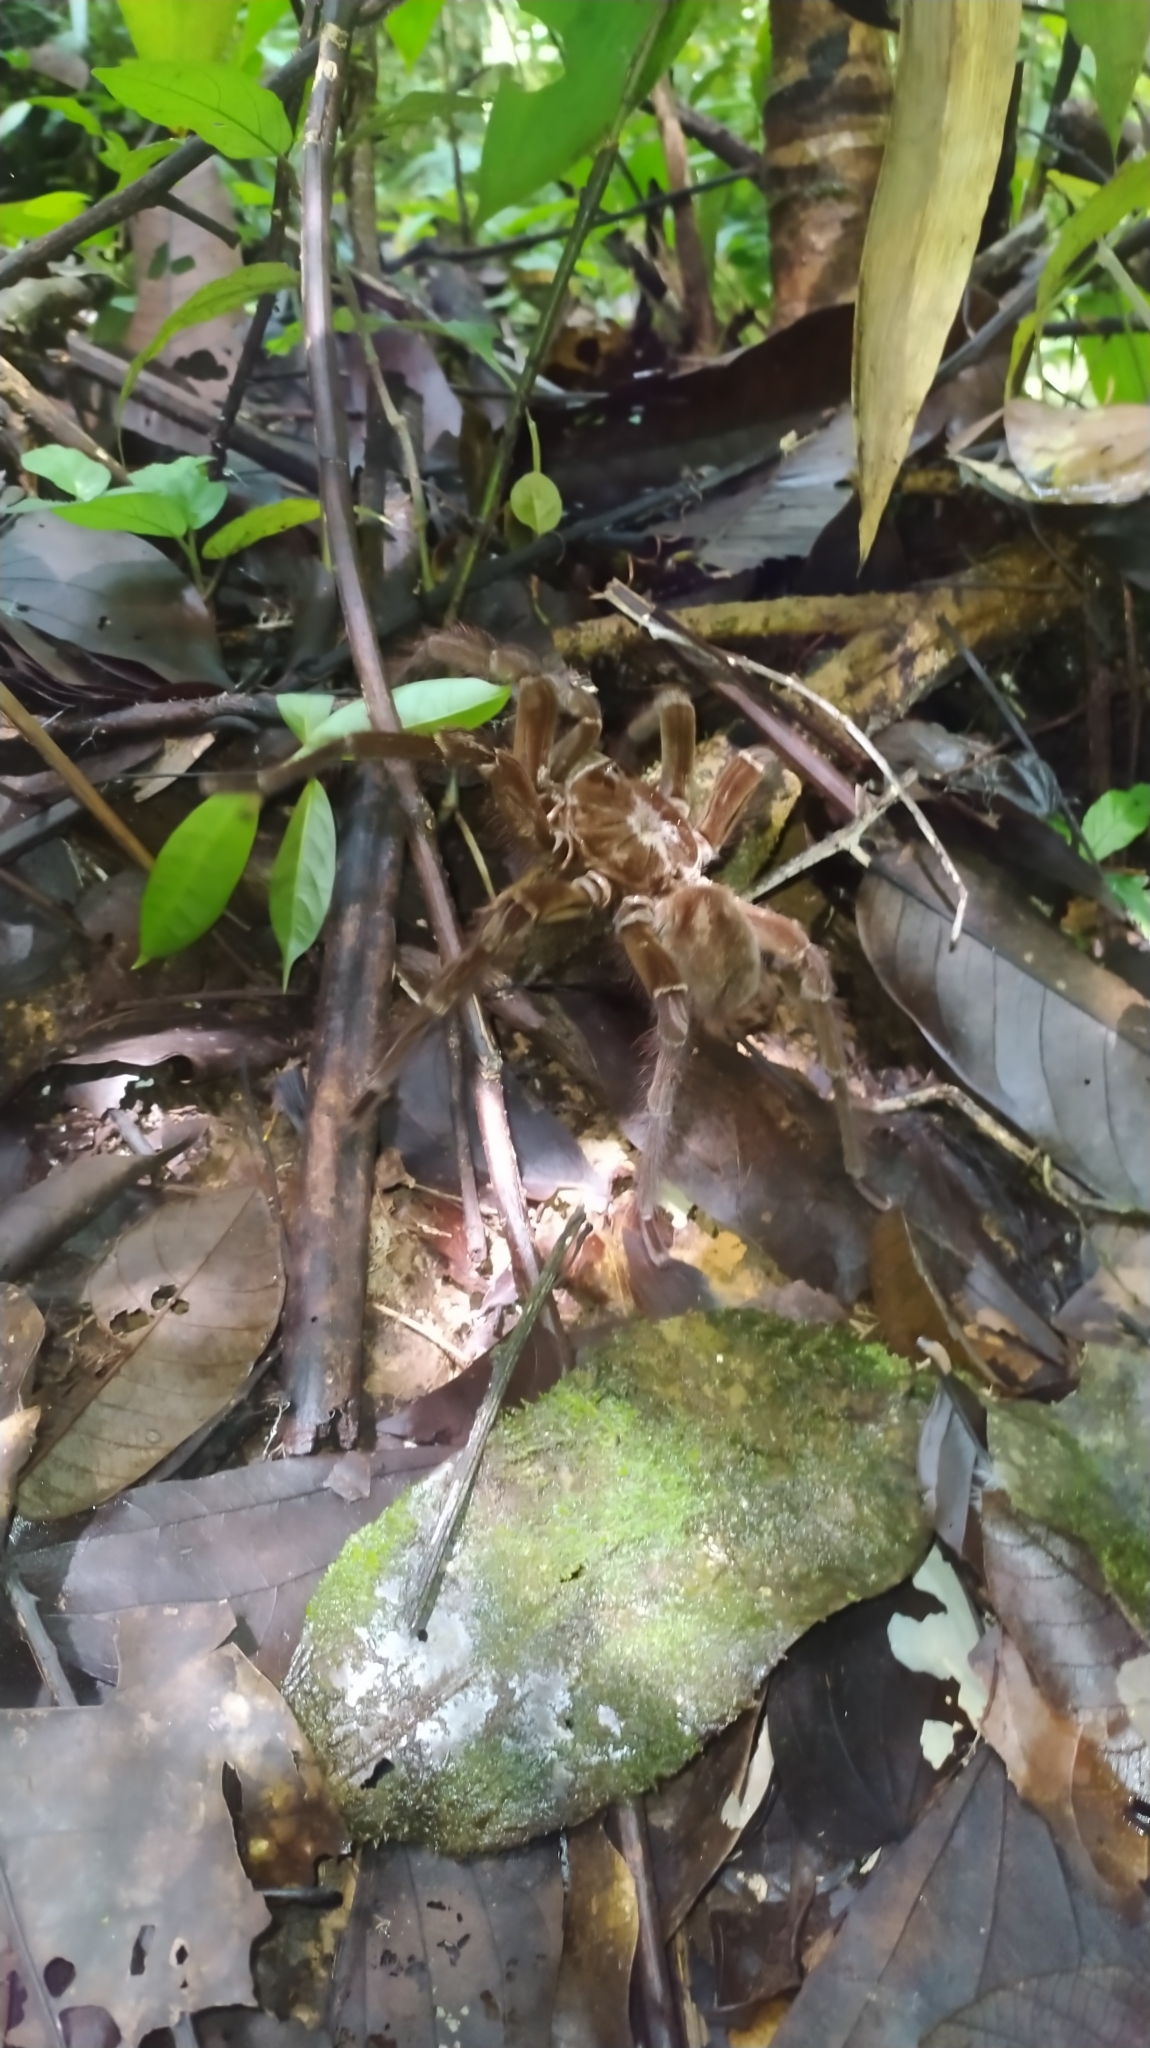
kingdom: Animalia
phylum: Arthropoda
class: Arachnida
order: Araneae
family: Theraphosidae
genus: Theraphosa
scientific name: Theraphosa blondi
